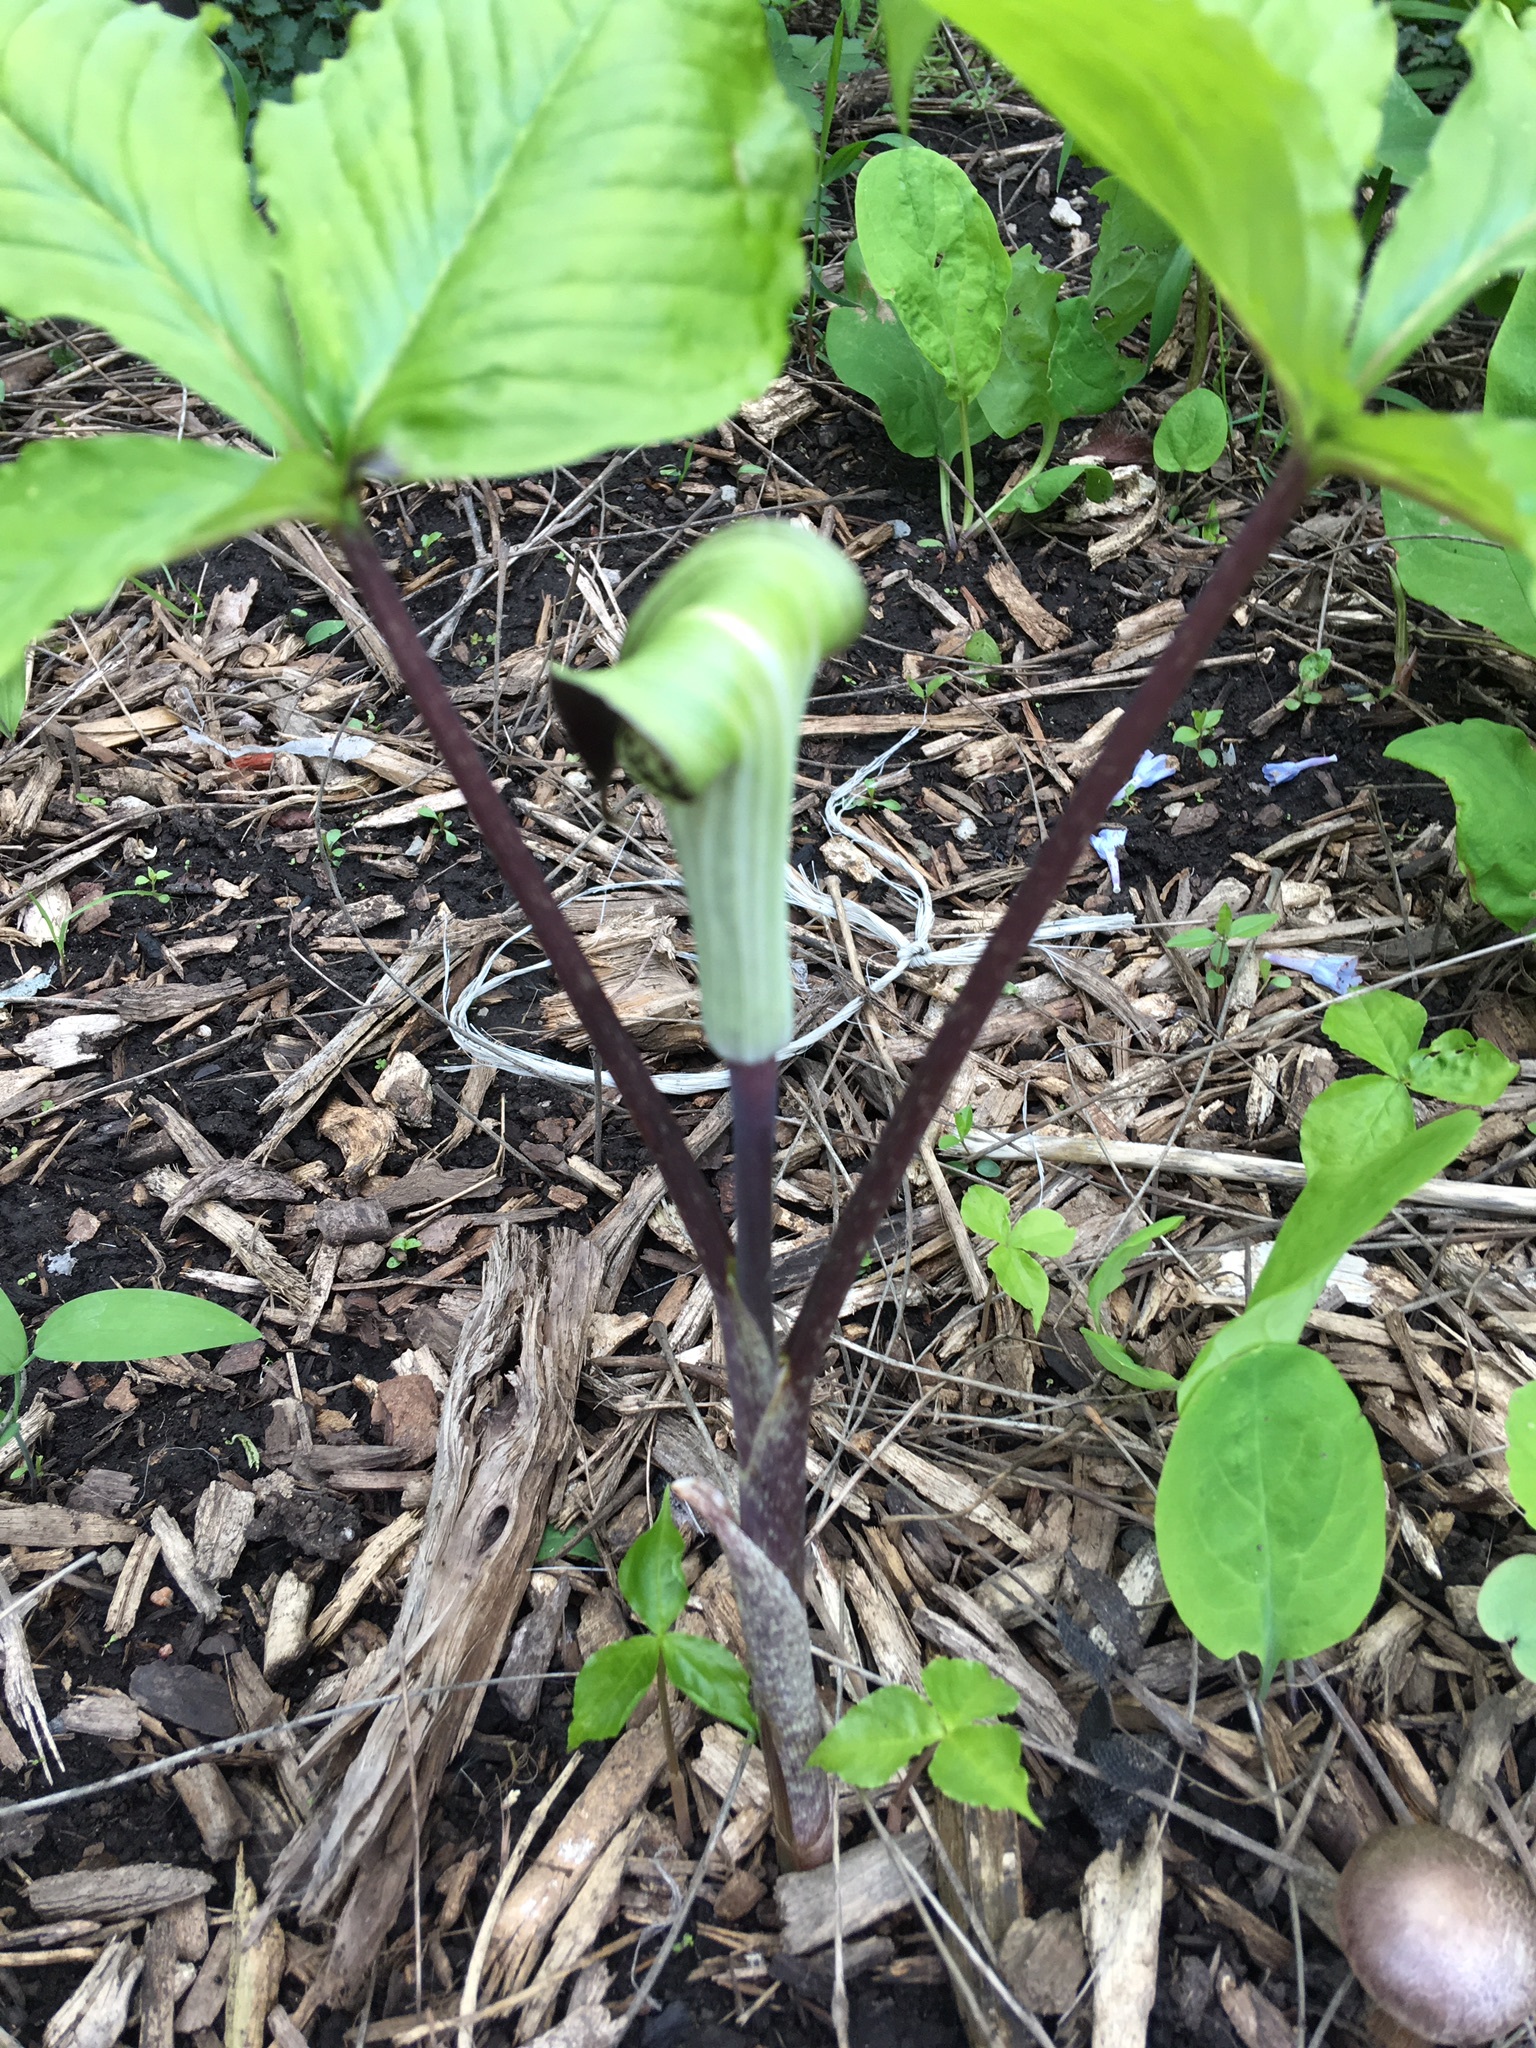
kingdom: Plantae
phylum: Tracheophyta
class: Liliopsida
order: Alismatales
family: Araceae
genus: Arisaema
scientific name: Arisaema triphyllum
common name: Jack-in-the-pulpit
